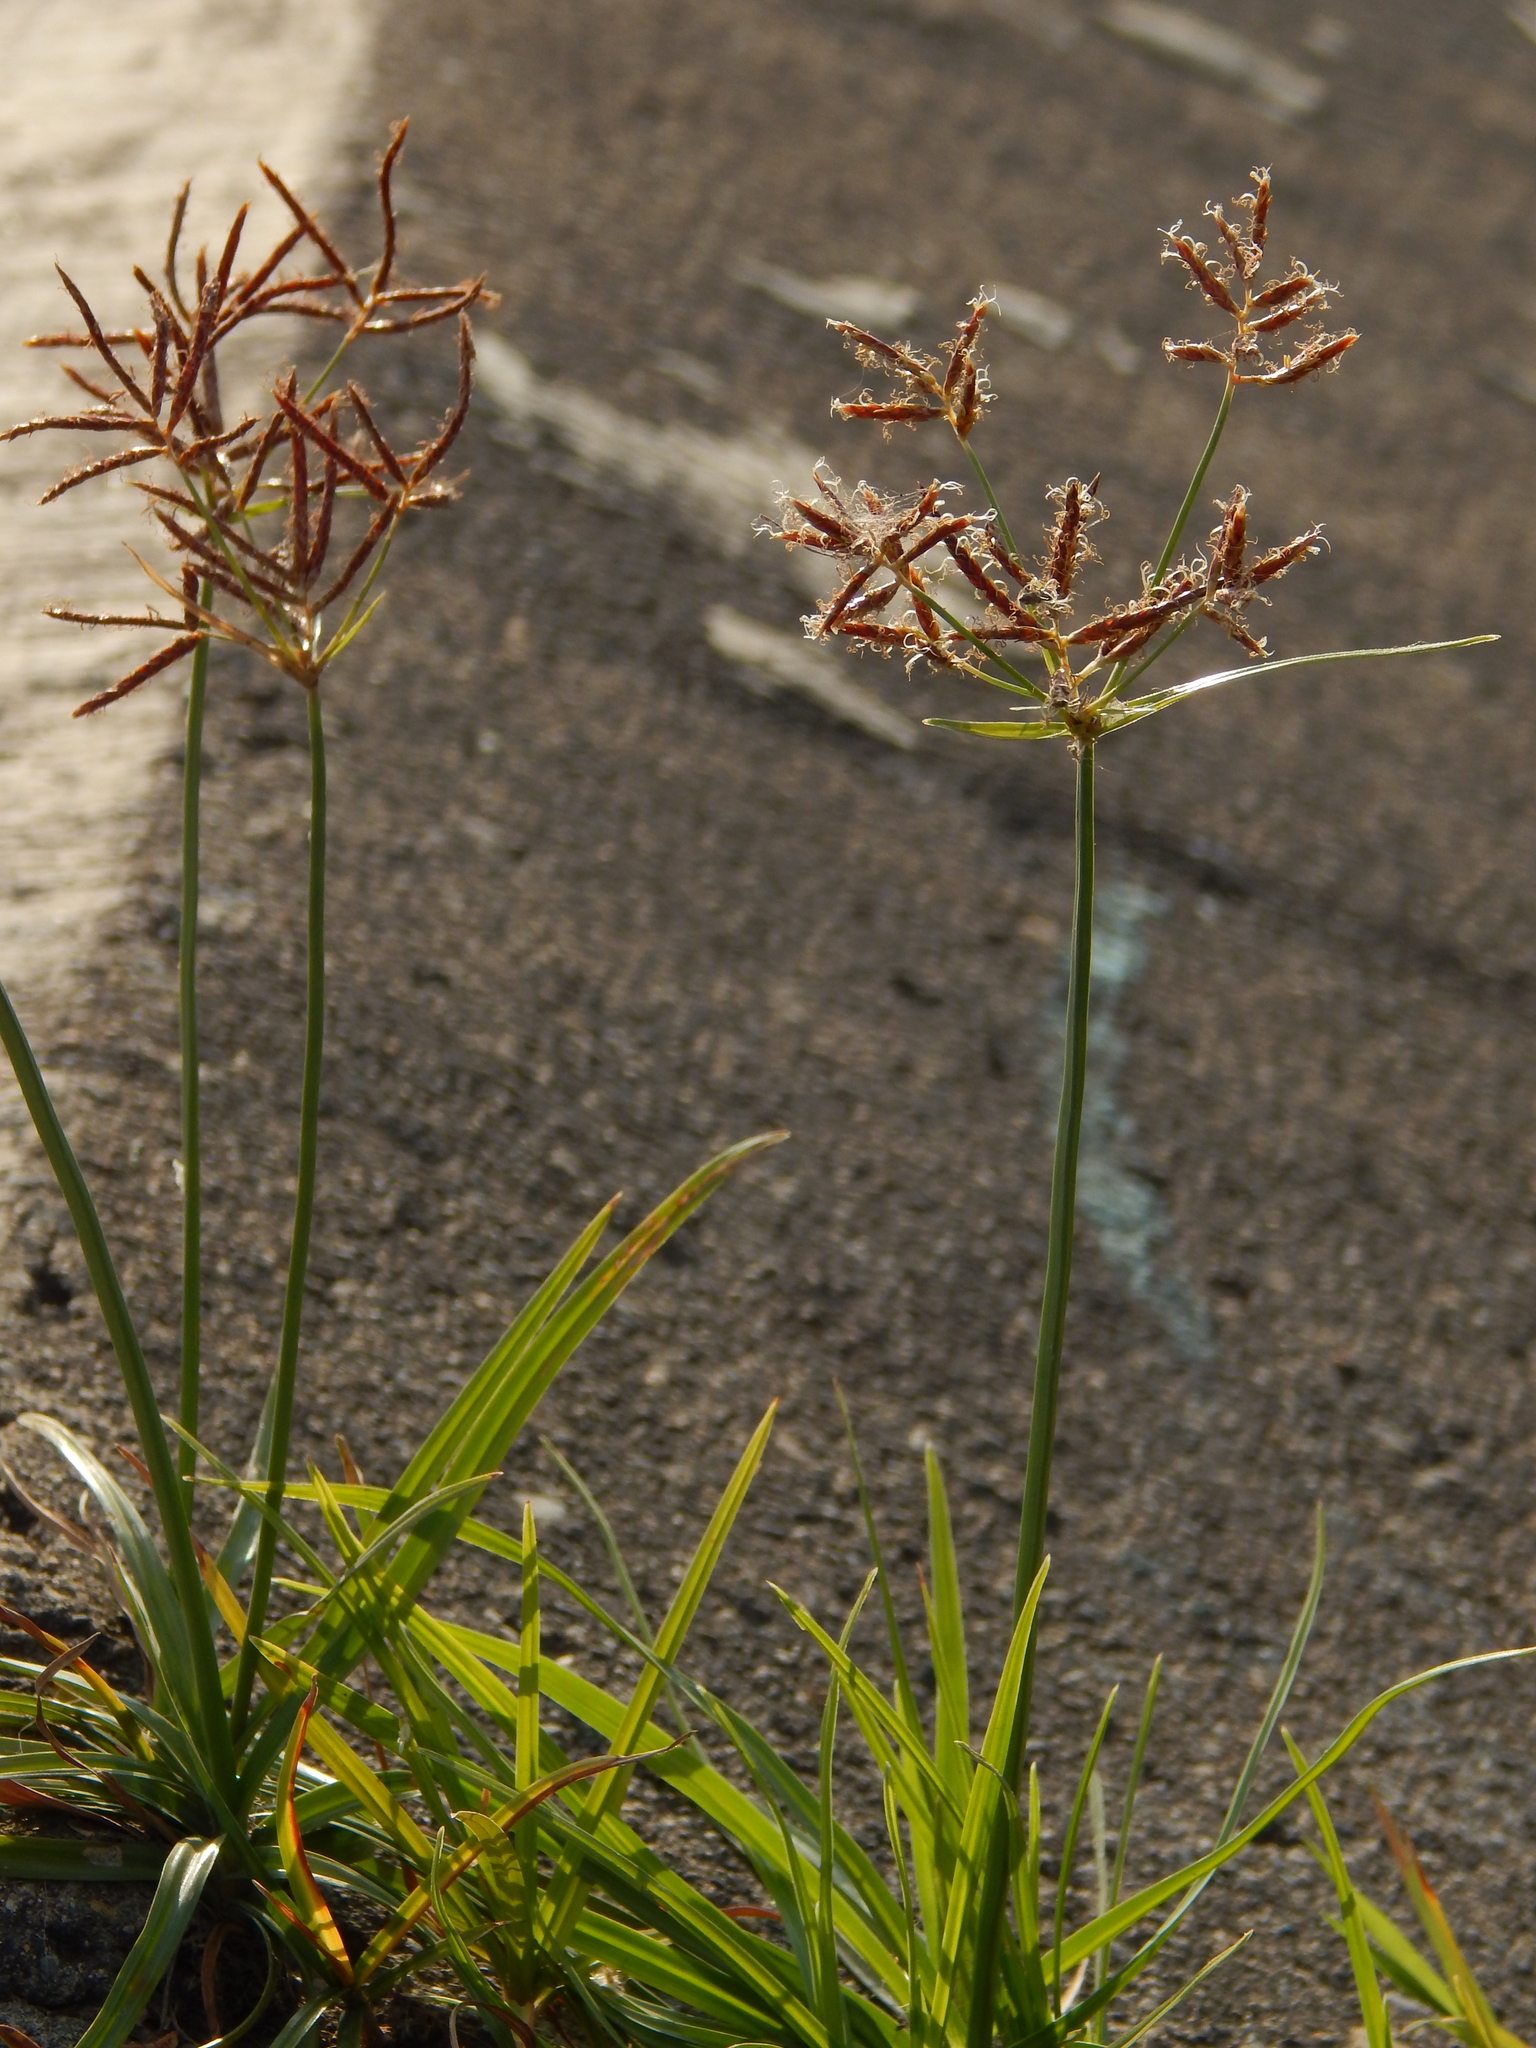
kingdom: Plantae
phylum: Tracheophyta
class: Liliopsida
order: Poales
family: Cyperaceae
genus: Cyperus
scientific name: Cyperus rotundus
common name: Nutgrass
